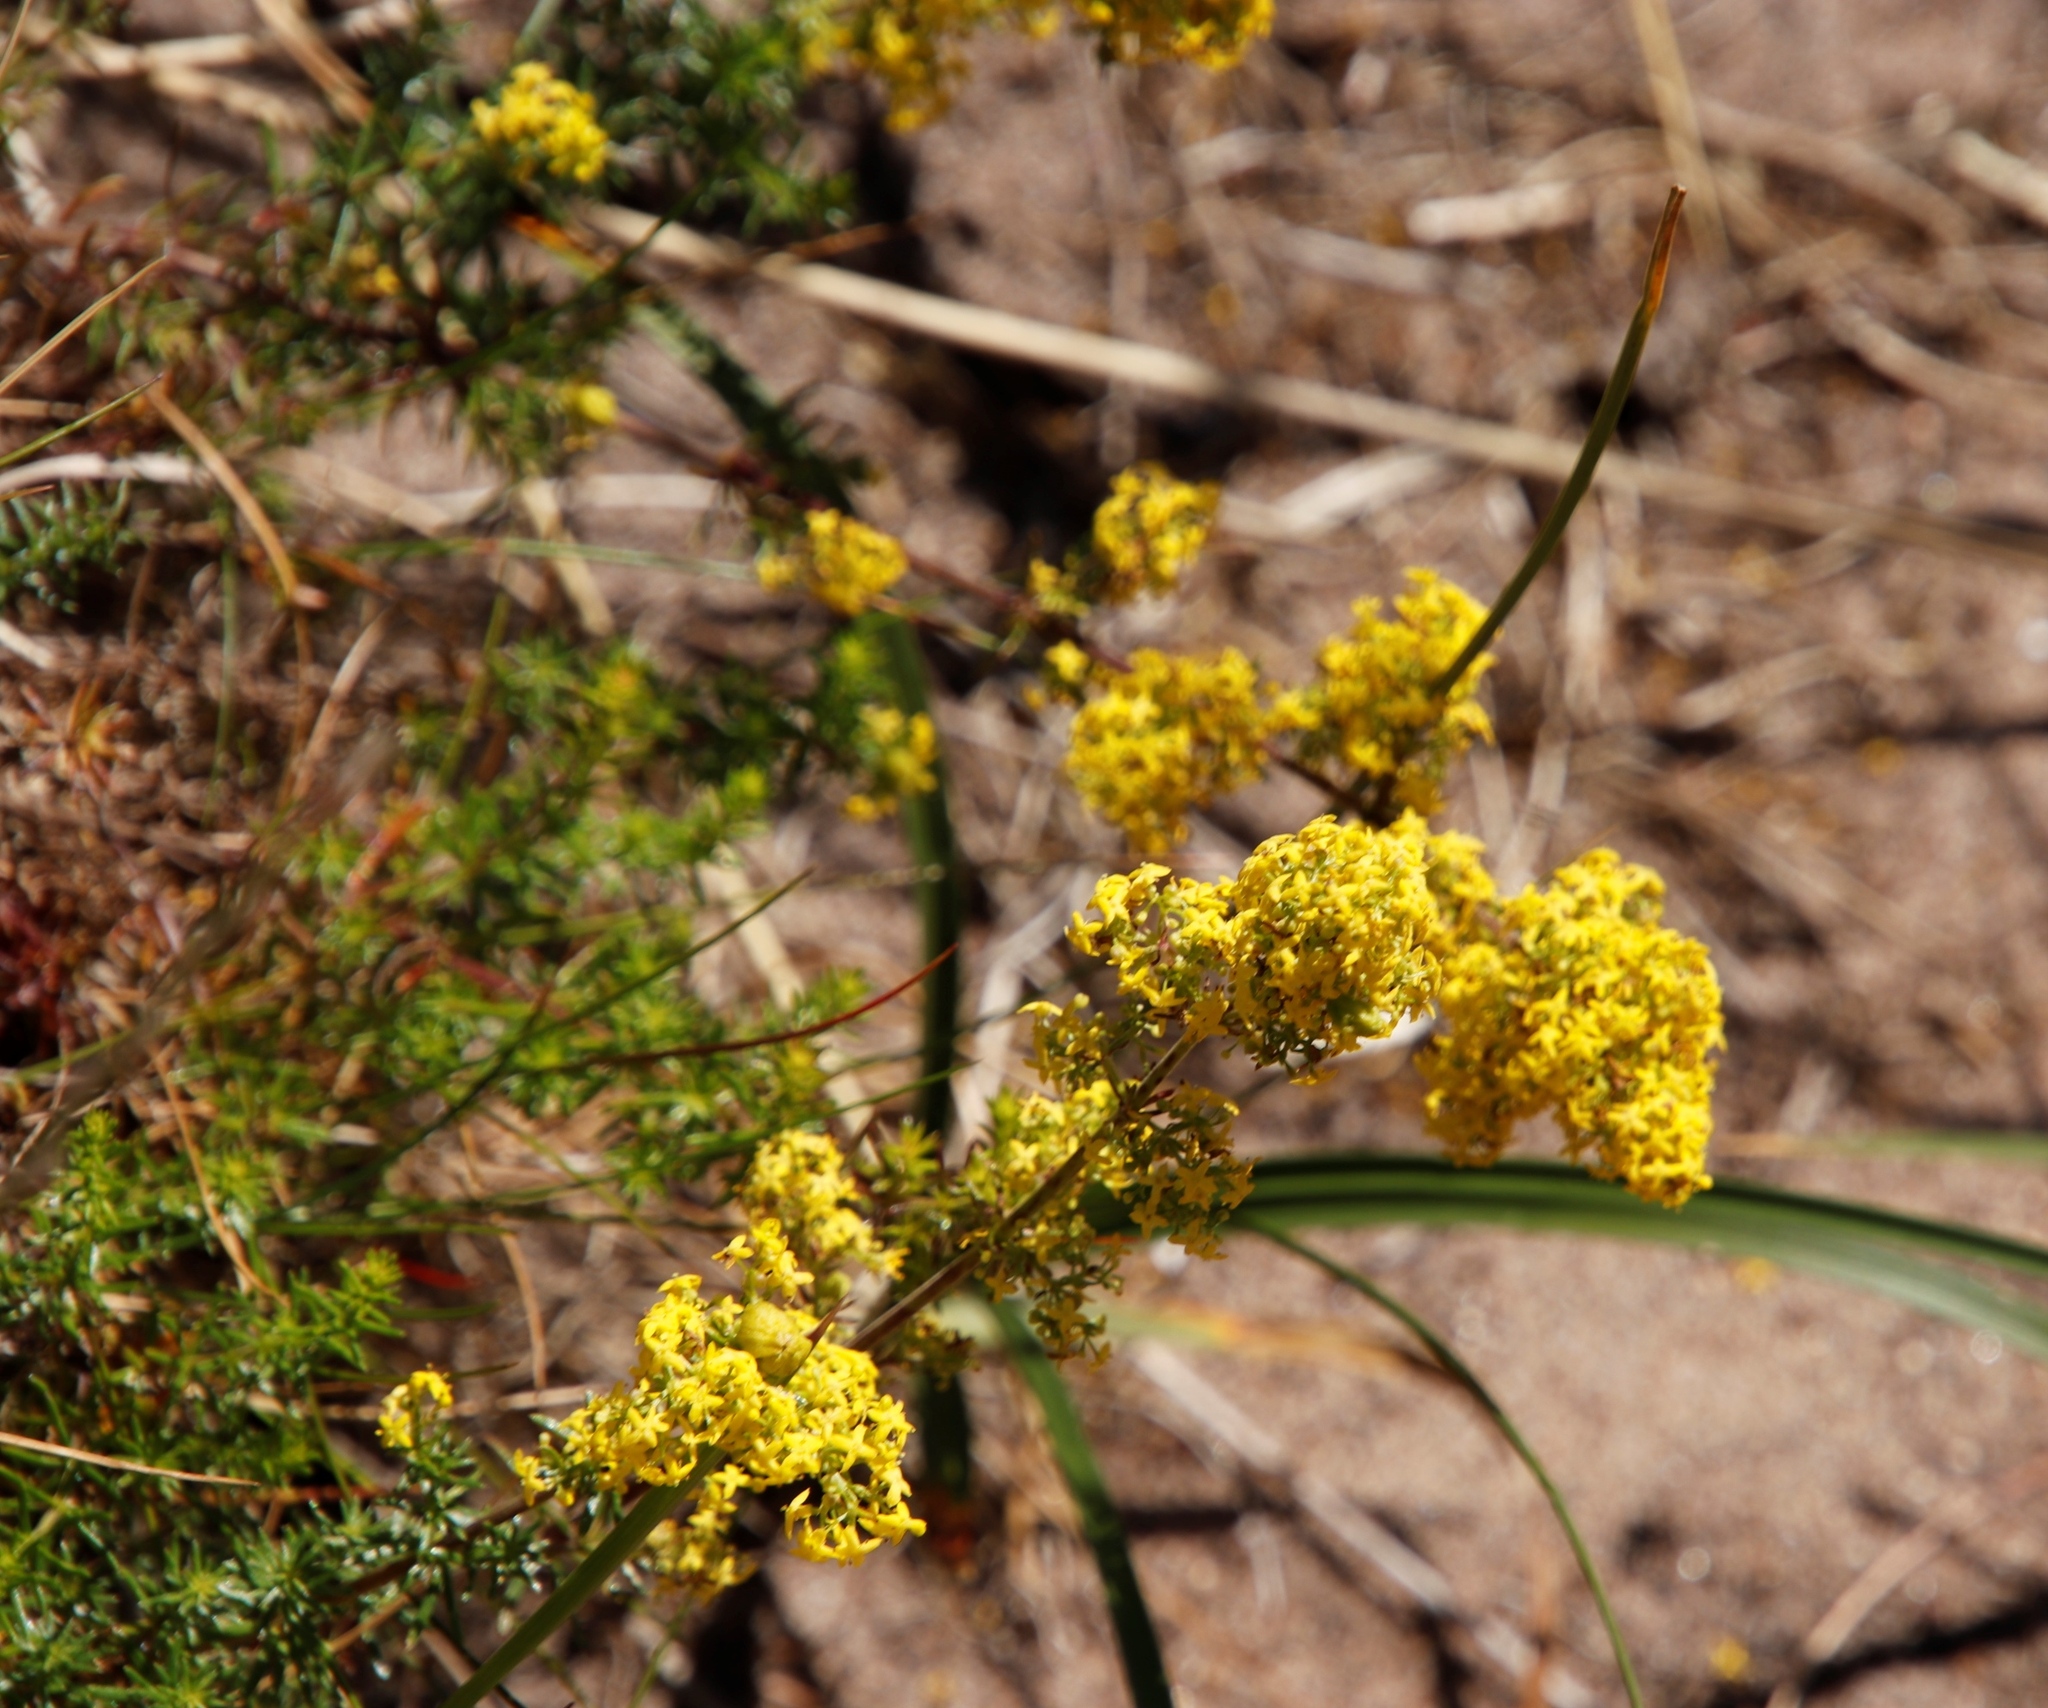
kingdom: Plantae
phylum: Tracheophyta
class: Magnoliopsida
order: Gentianales
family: Rubiaceae
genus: Galium
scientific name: Galium verum
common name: Lady's bedstraw
